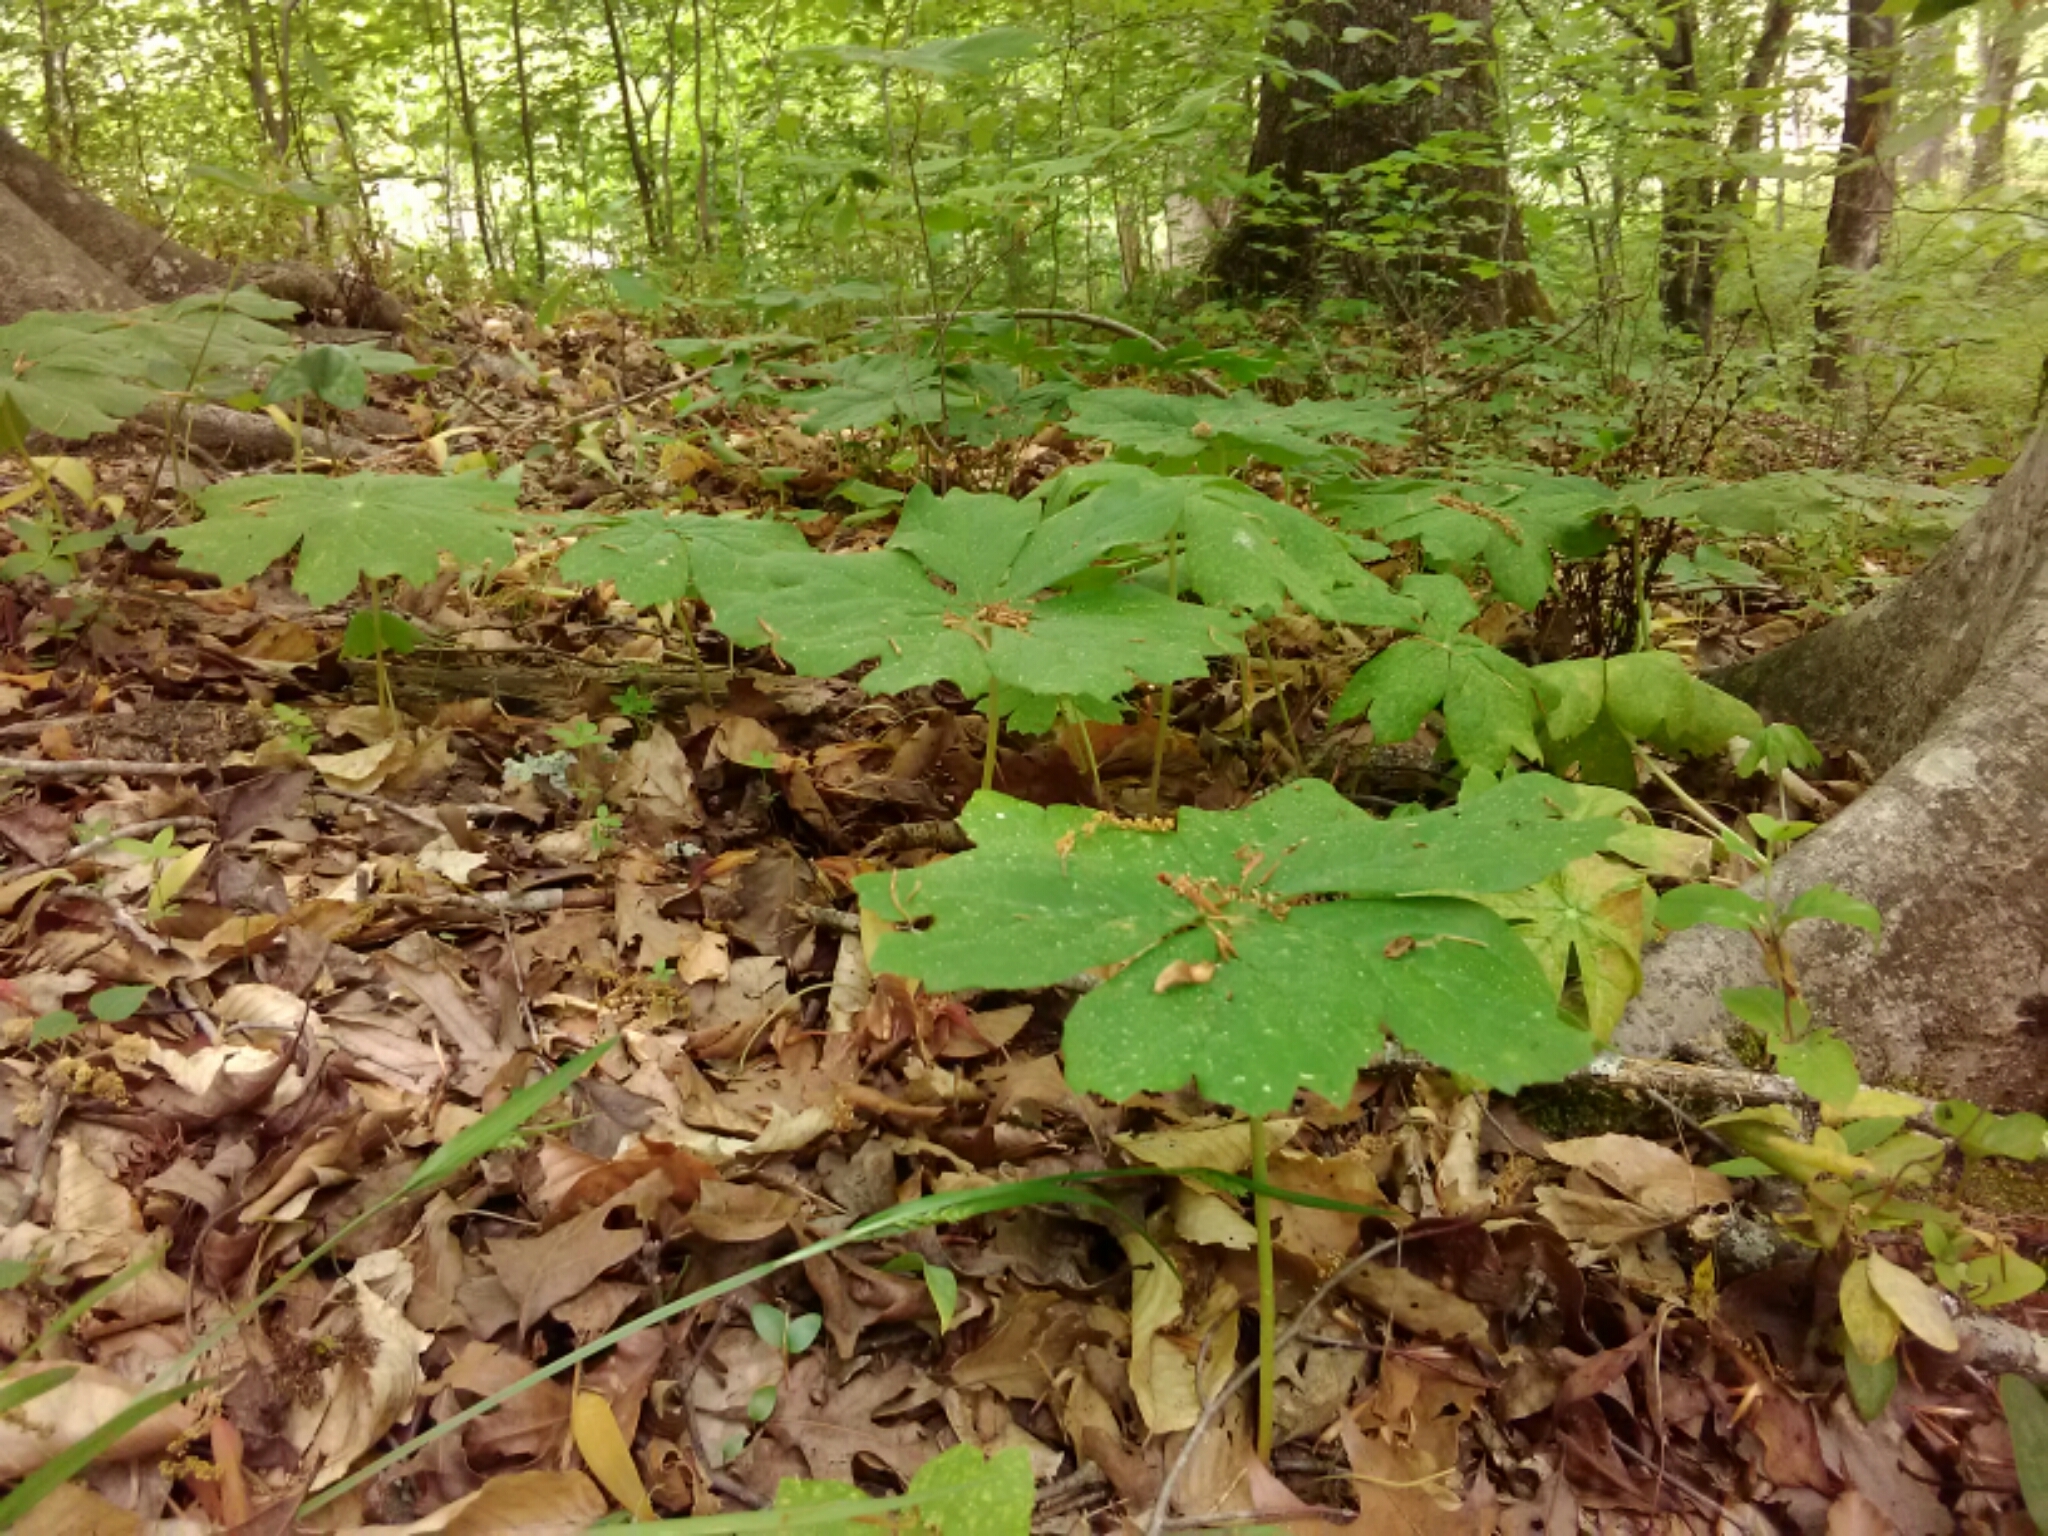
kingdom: Plantae
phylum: Tracheophyta
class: Magnoliopsida
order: Ranunculales
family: Berberidaceae
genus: Podophyllum
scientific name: Podophyllum peltatum
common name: Wild mandrake
